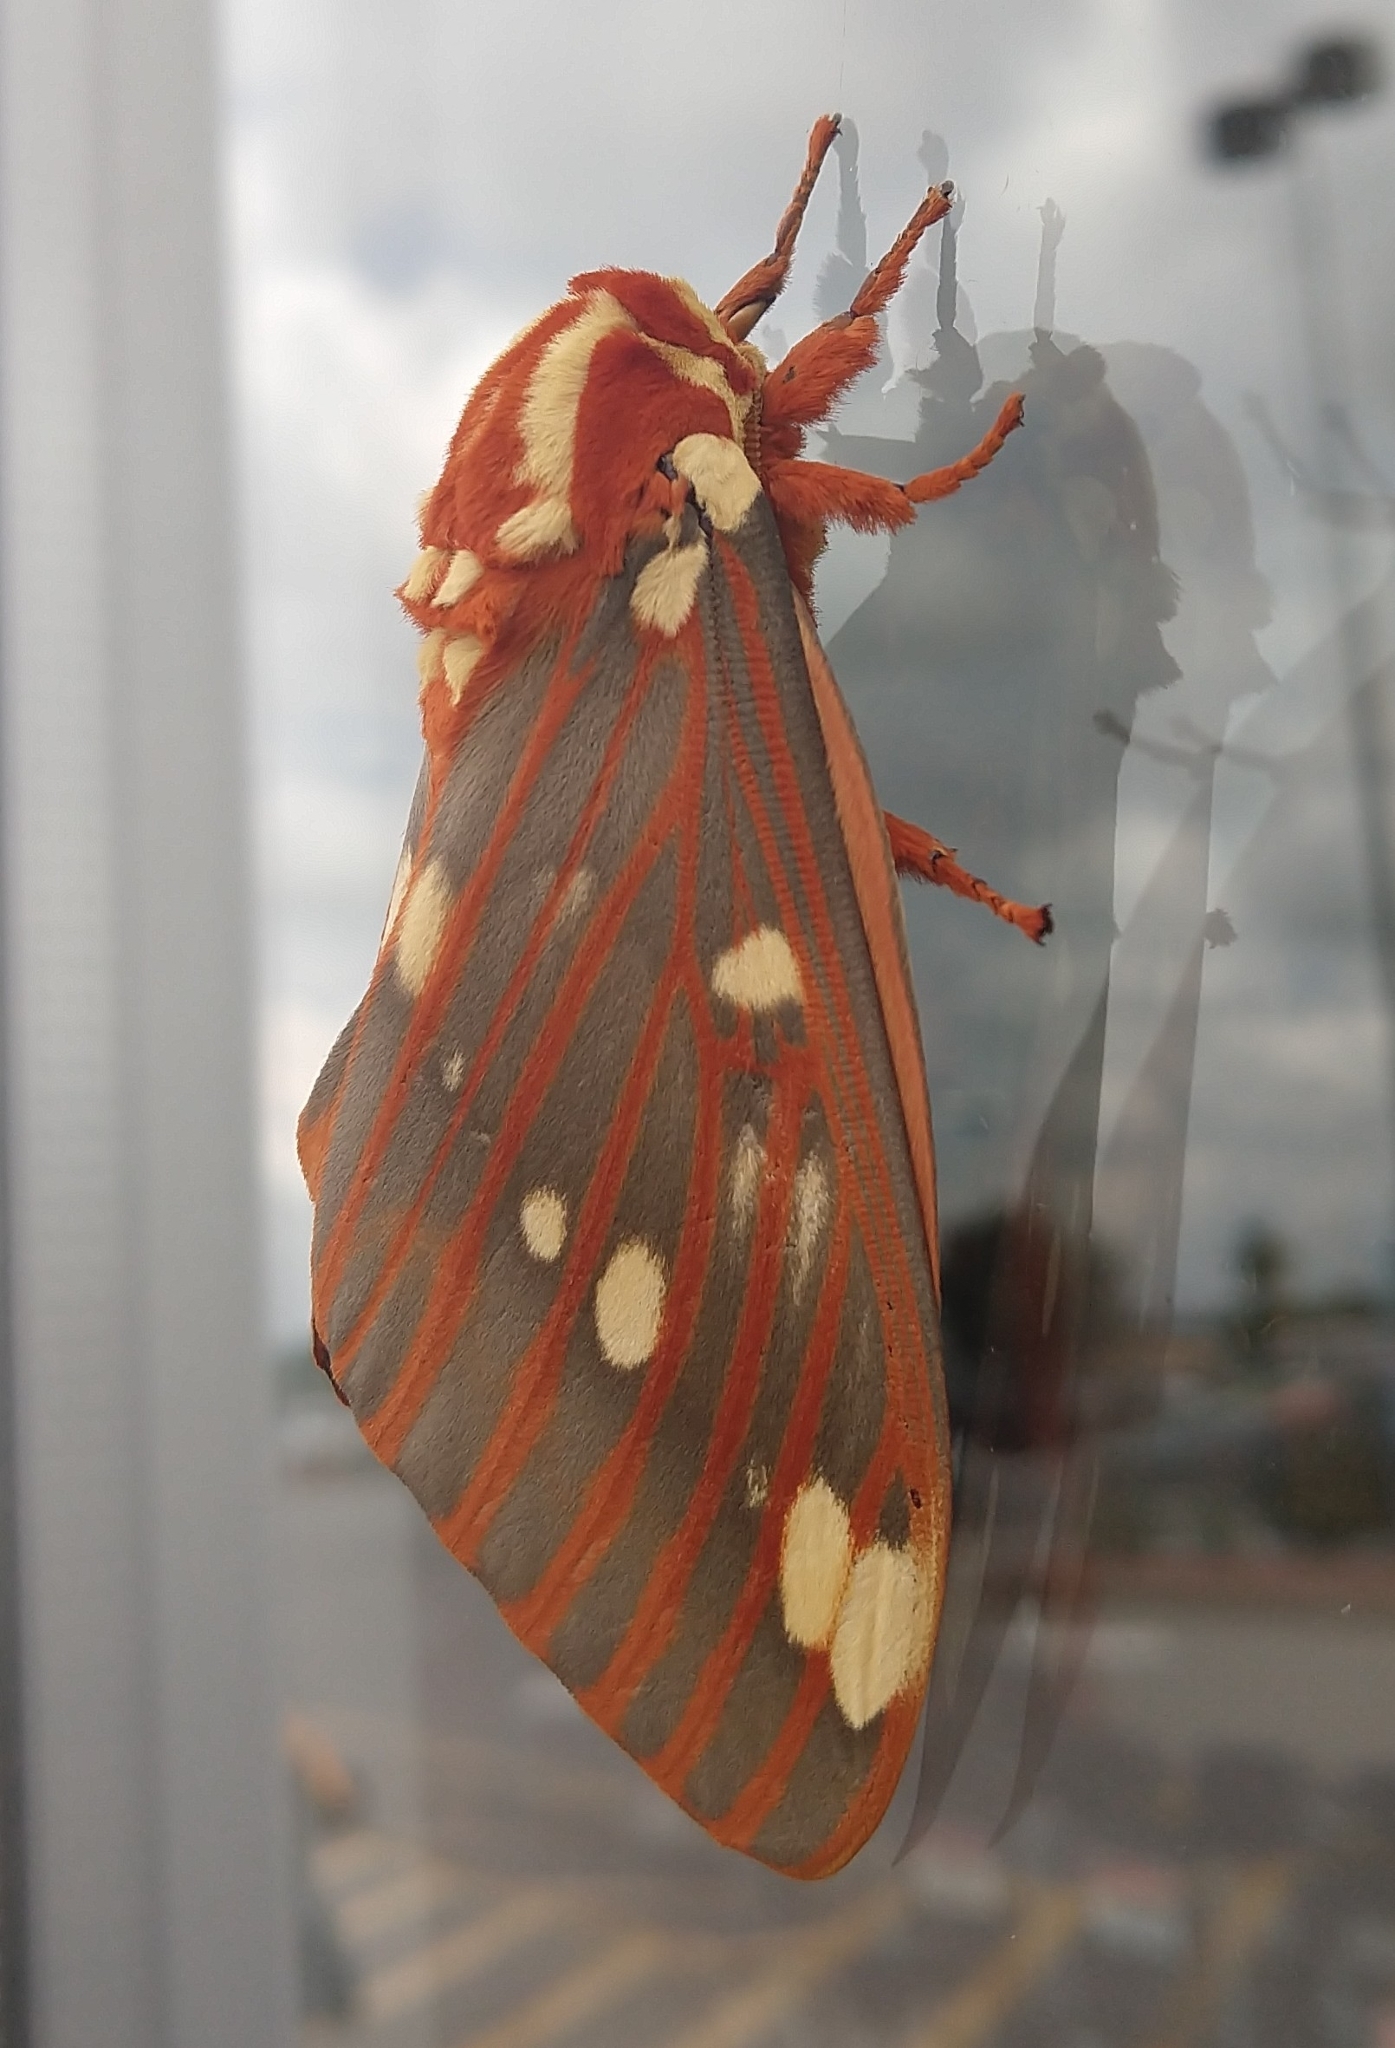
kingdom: Animalia
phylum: Arthropoda
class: Insecta
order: Lepidoptera
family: Saturniidae
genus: Citheronia
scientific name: Citheronia regalis
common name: Hickory horned devil
